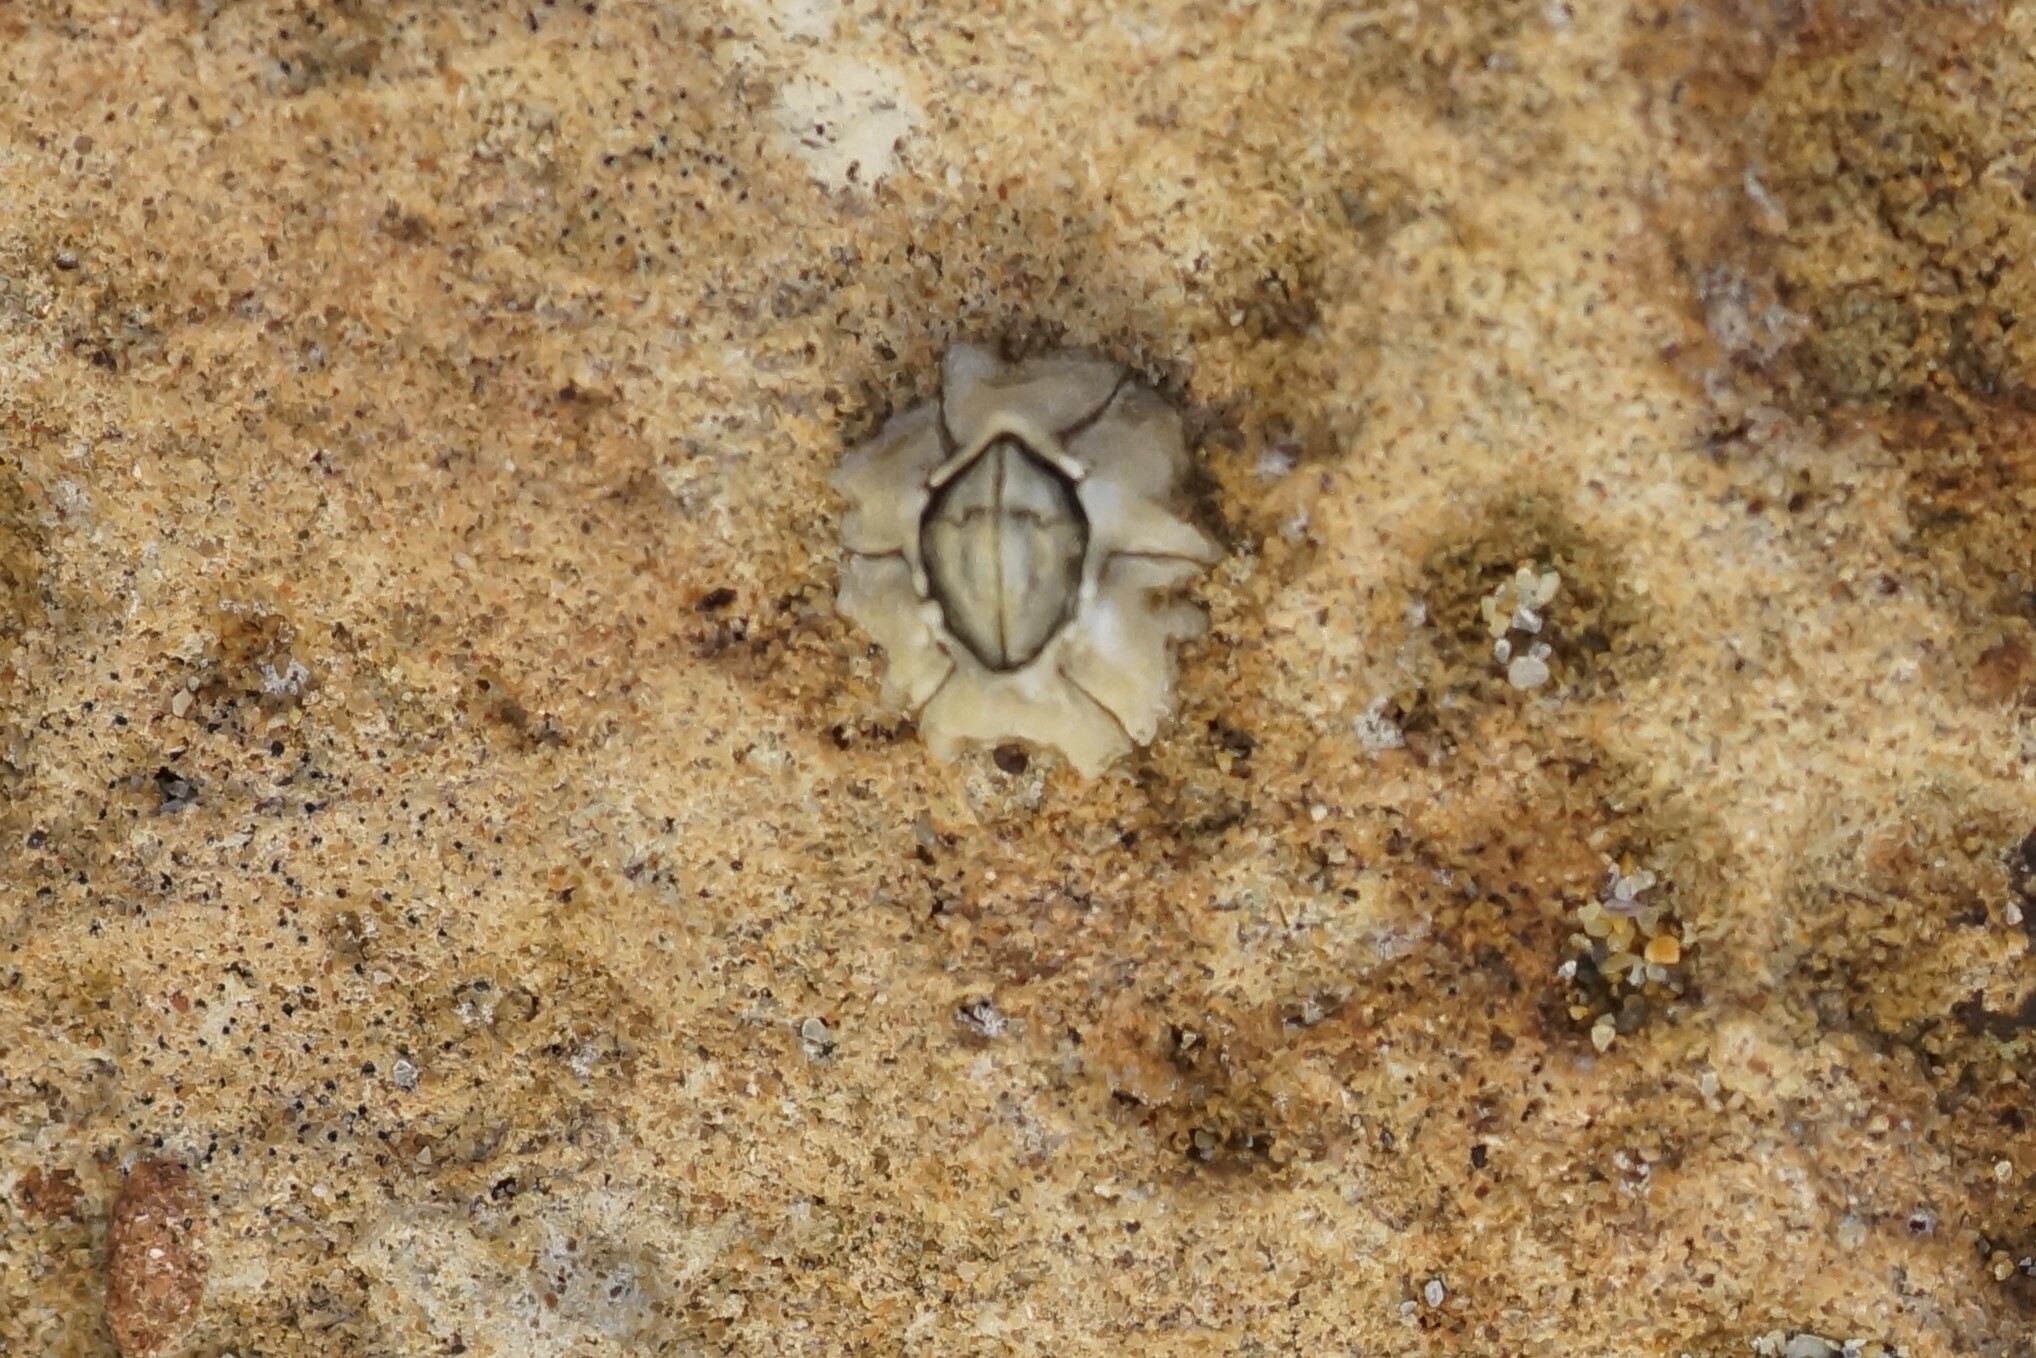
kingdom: Animalia
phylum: Arthropoda
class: Maxillopoda
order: Sessilia
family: Chthamalidae
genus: Chthamalus
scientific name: Chthamalus antennatus
